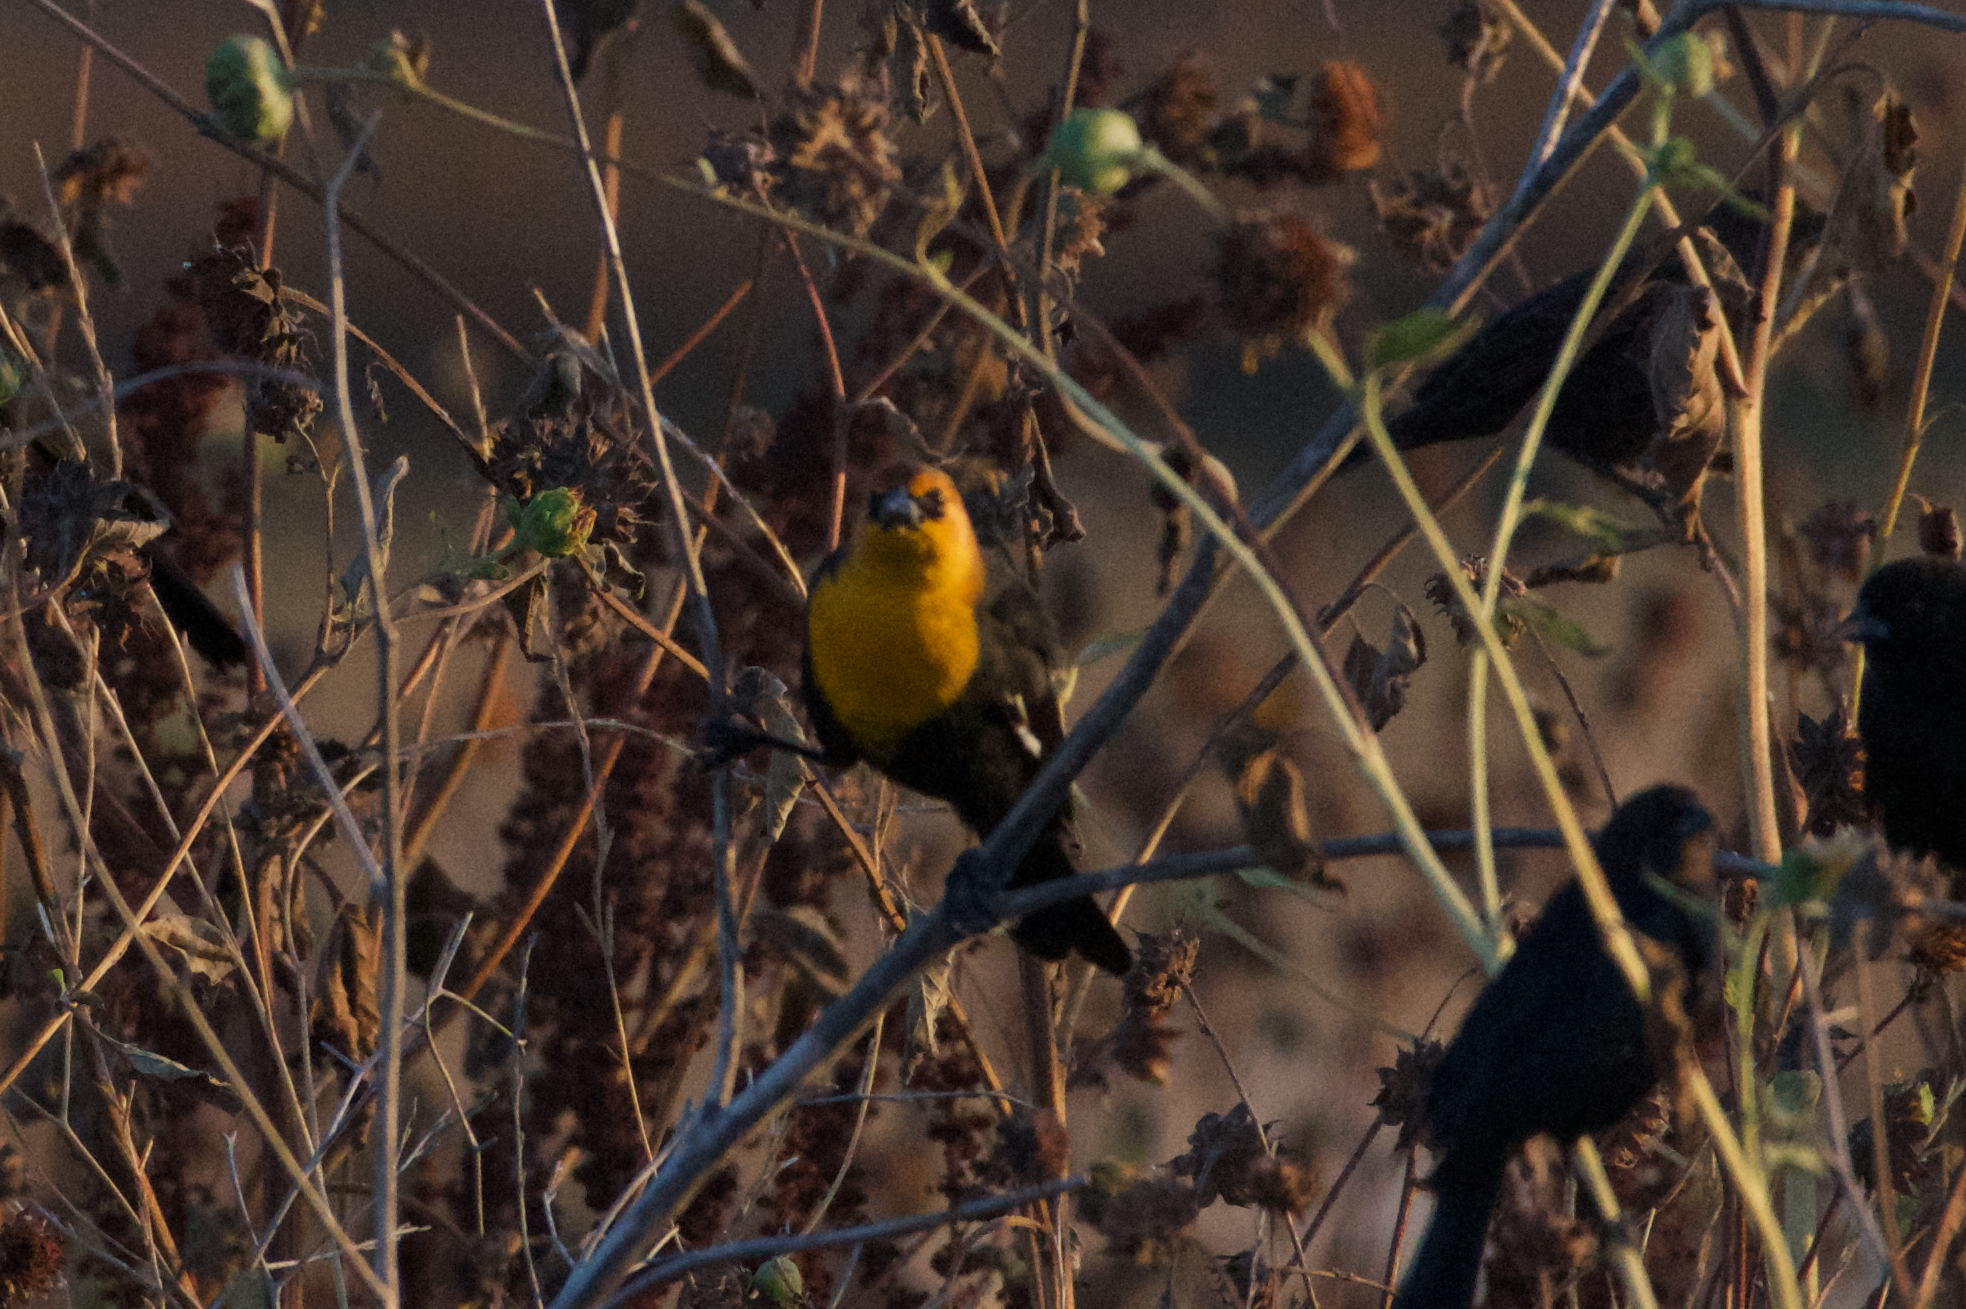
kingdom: Animalia
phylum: Chordata
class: Aves
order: Passeriformes
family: Icteridae
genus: Xanthocephalus
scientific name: Xanthocephalus xanthocephalus
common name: Yellow-headed blackbird
